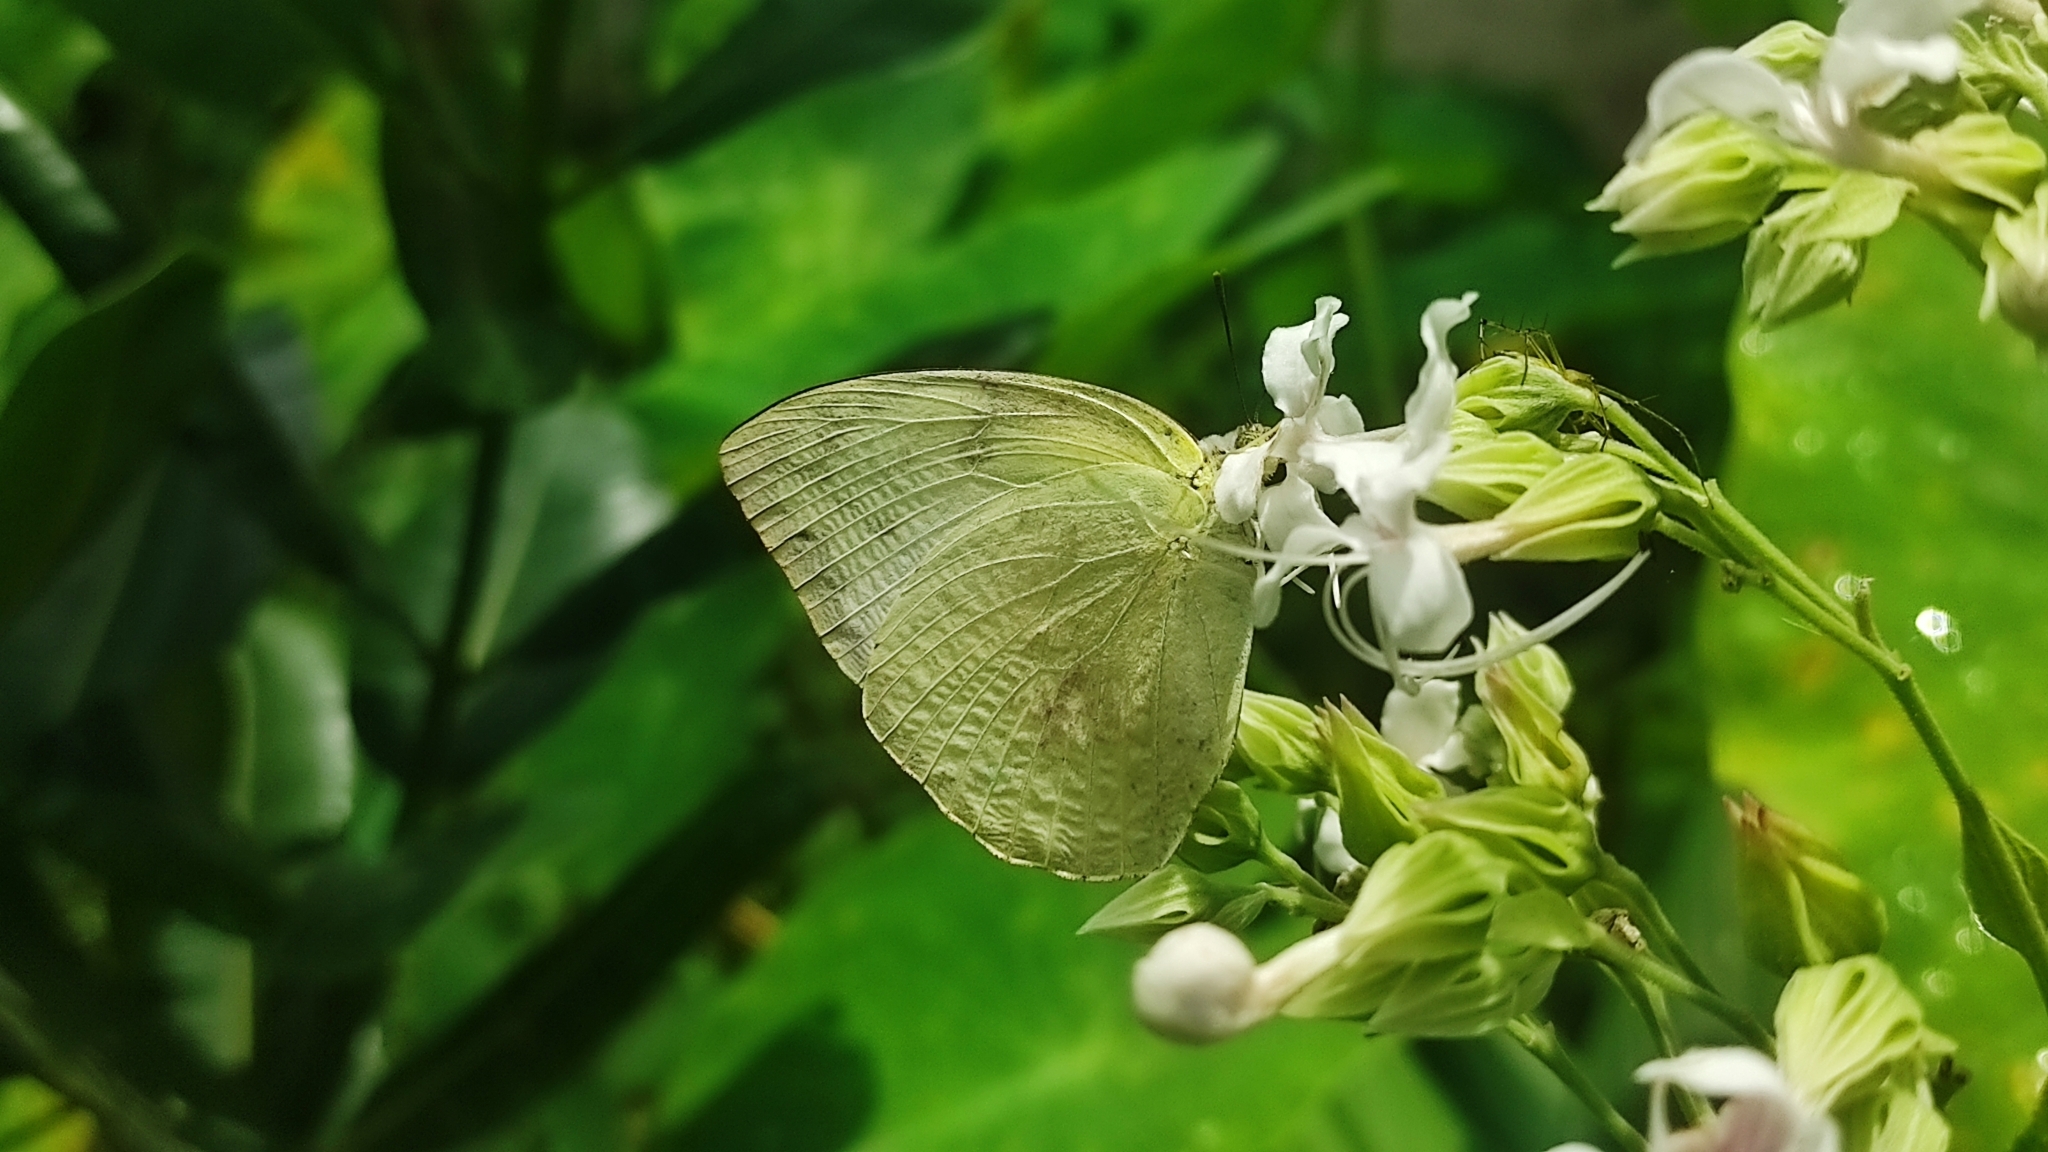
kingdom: Animalia
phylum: Arthropoda
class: Insecta
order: Lepidoptera
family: Pieridae
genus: Catopsilia
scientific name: Catopsilia pomona
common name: Common emigrant
